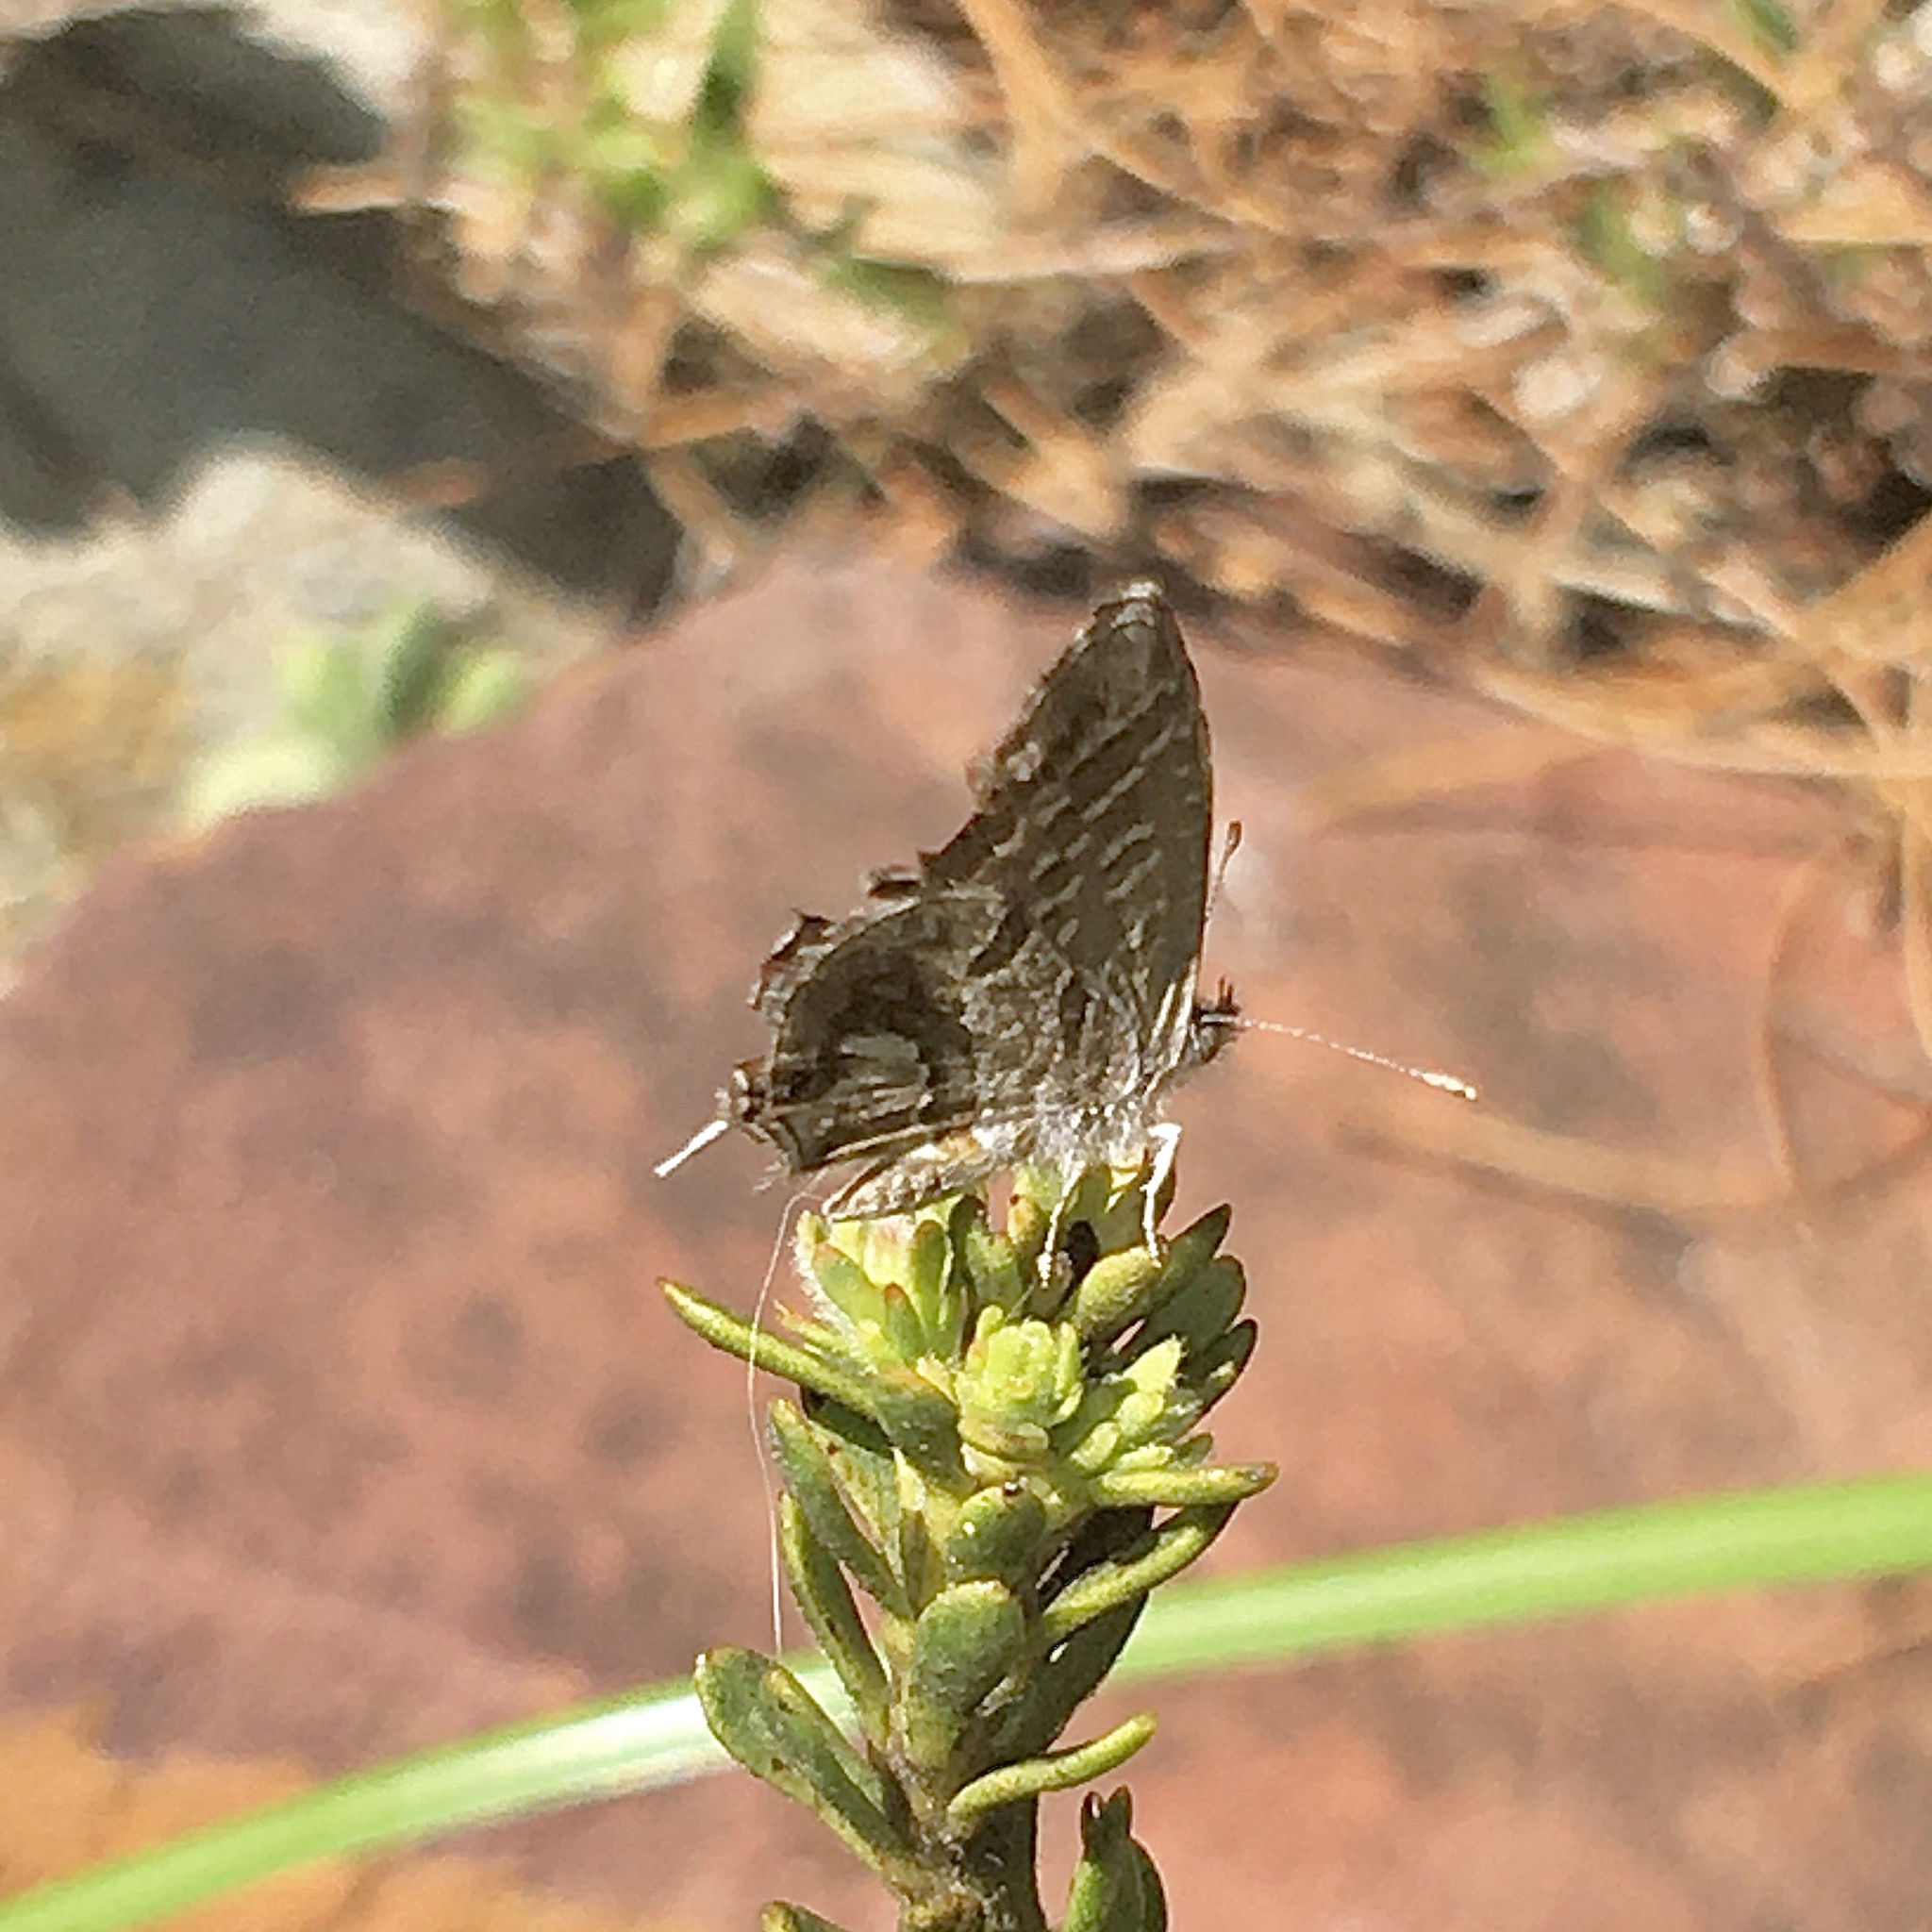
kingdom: Animalia
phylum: Arthropoda
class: Insecta
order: Lepidoptera
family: Lycaenidae
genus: Cacyreus
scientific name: Cacyreus marshalli
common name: Geranium bronze
